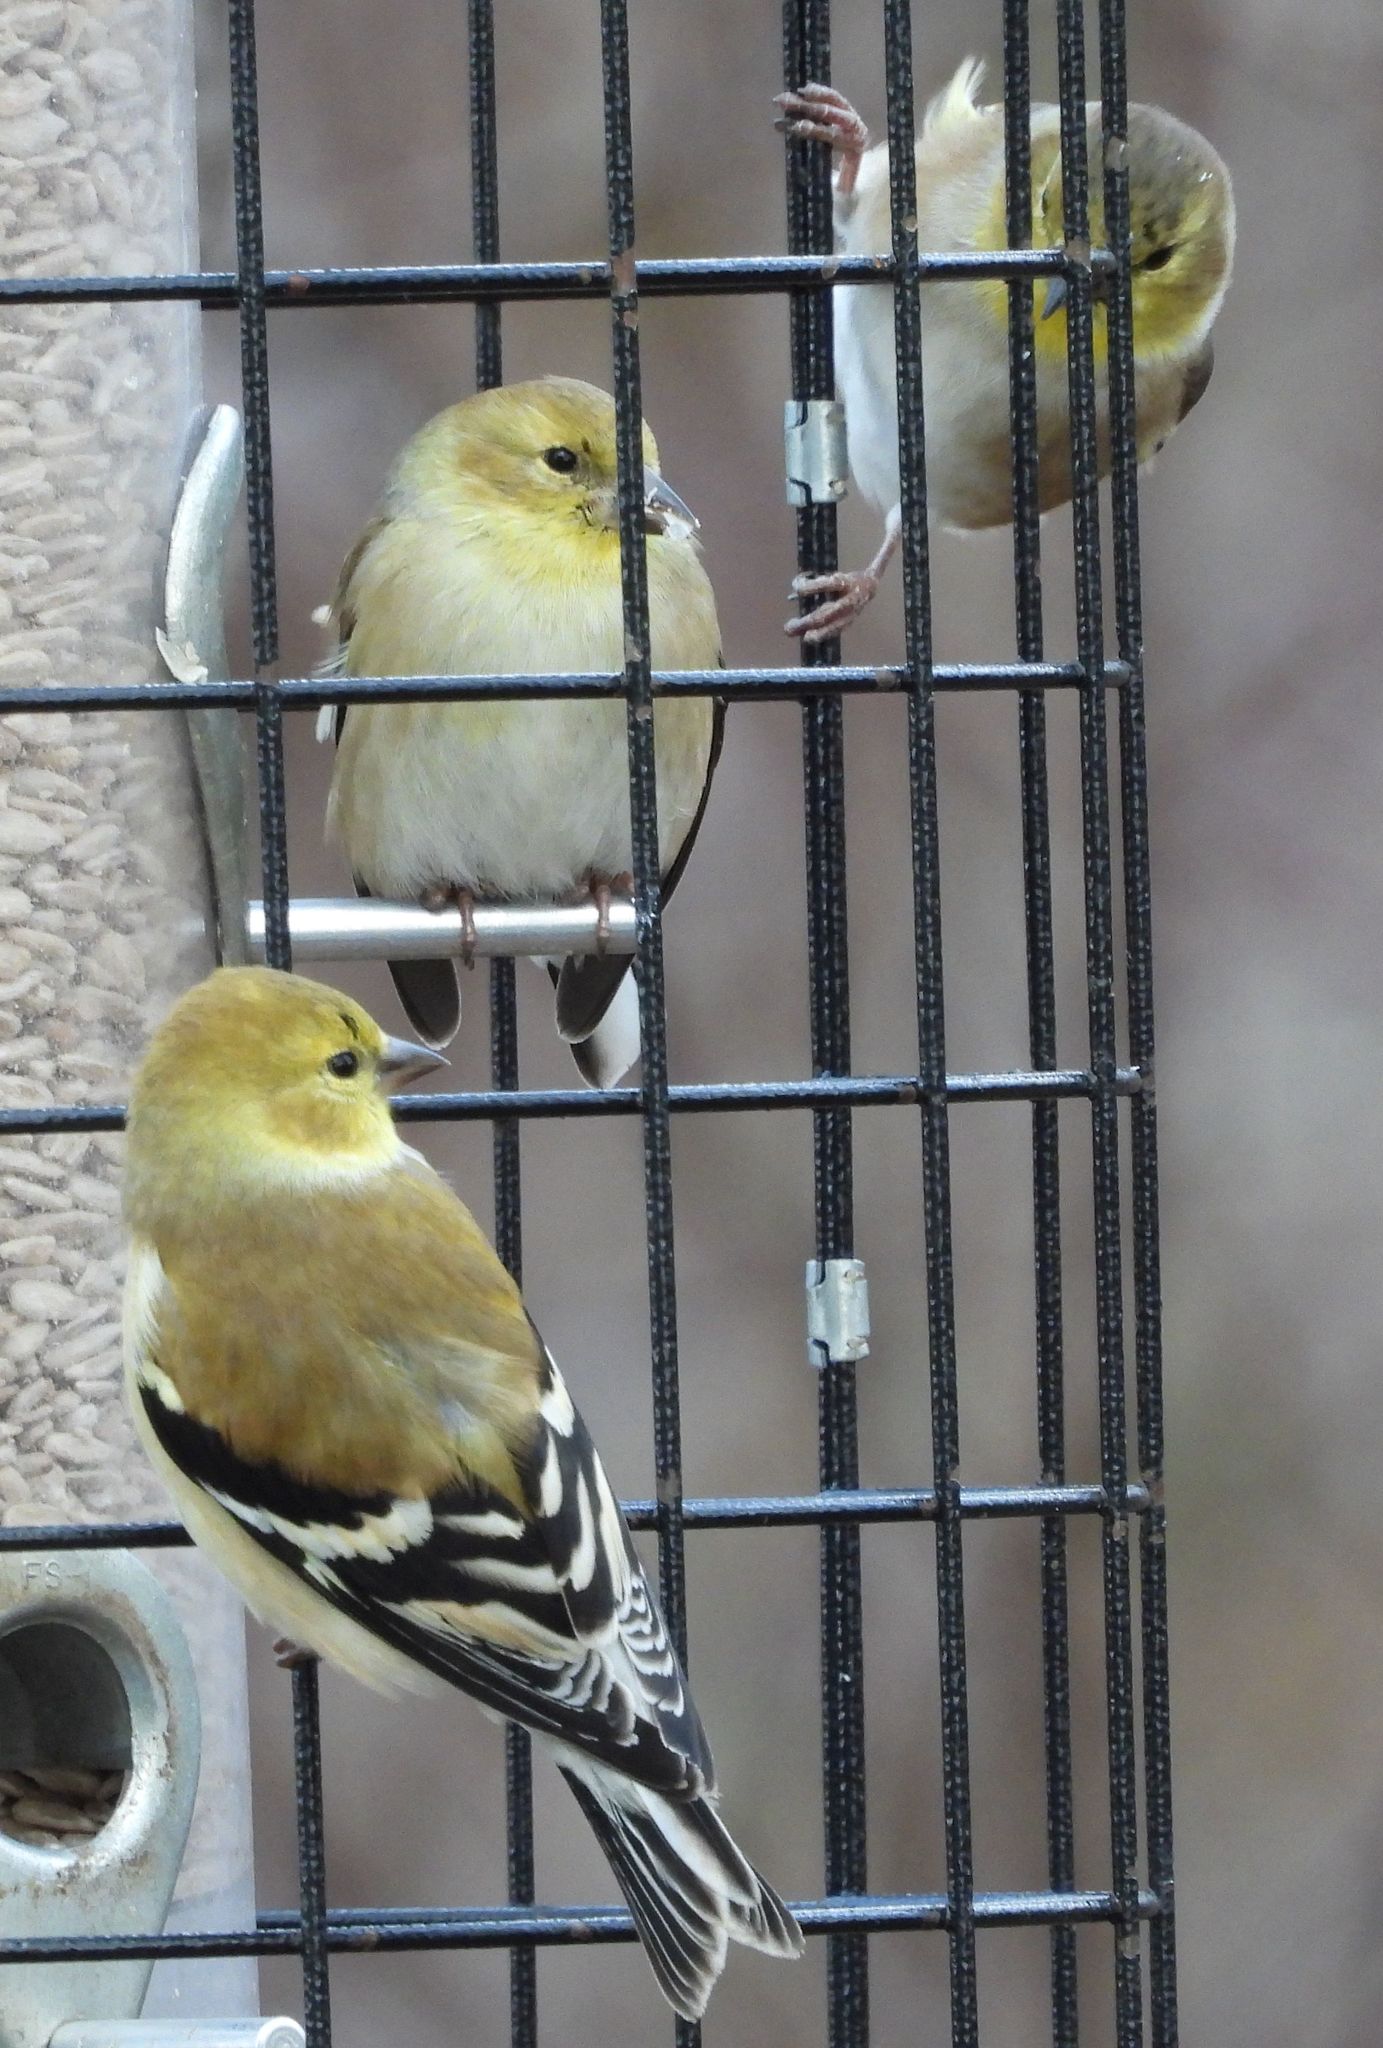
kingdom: Animalia
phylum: Chordata
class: Aves
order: Passeriformes
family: Fringillidae
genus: Spinus
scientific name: Spinus tristis
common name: American goldfinch
